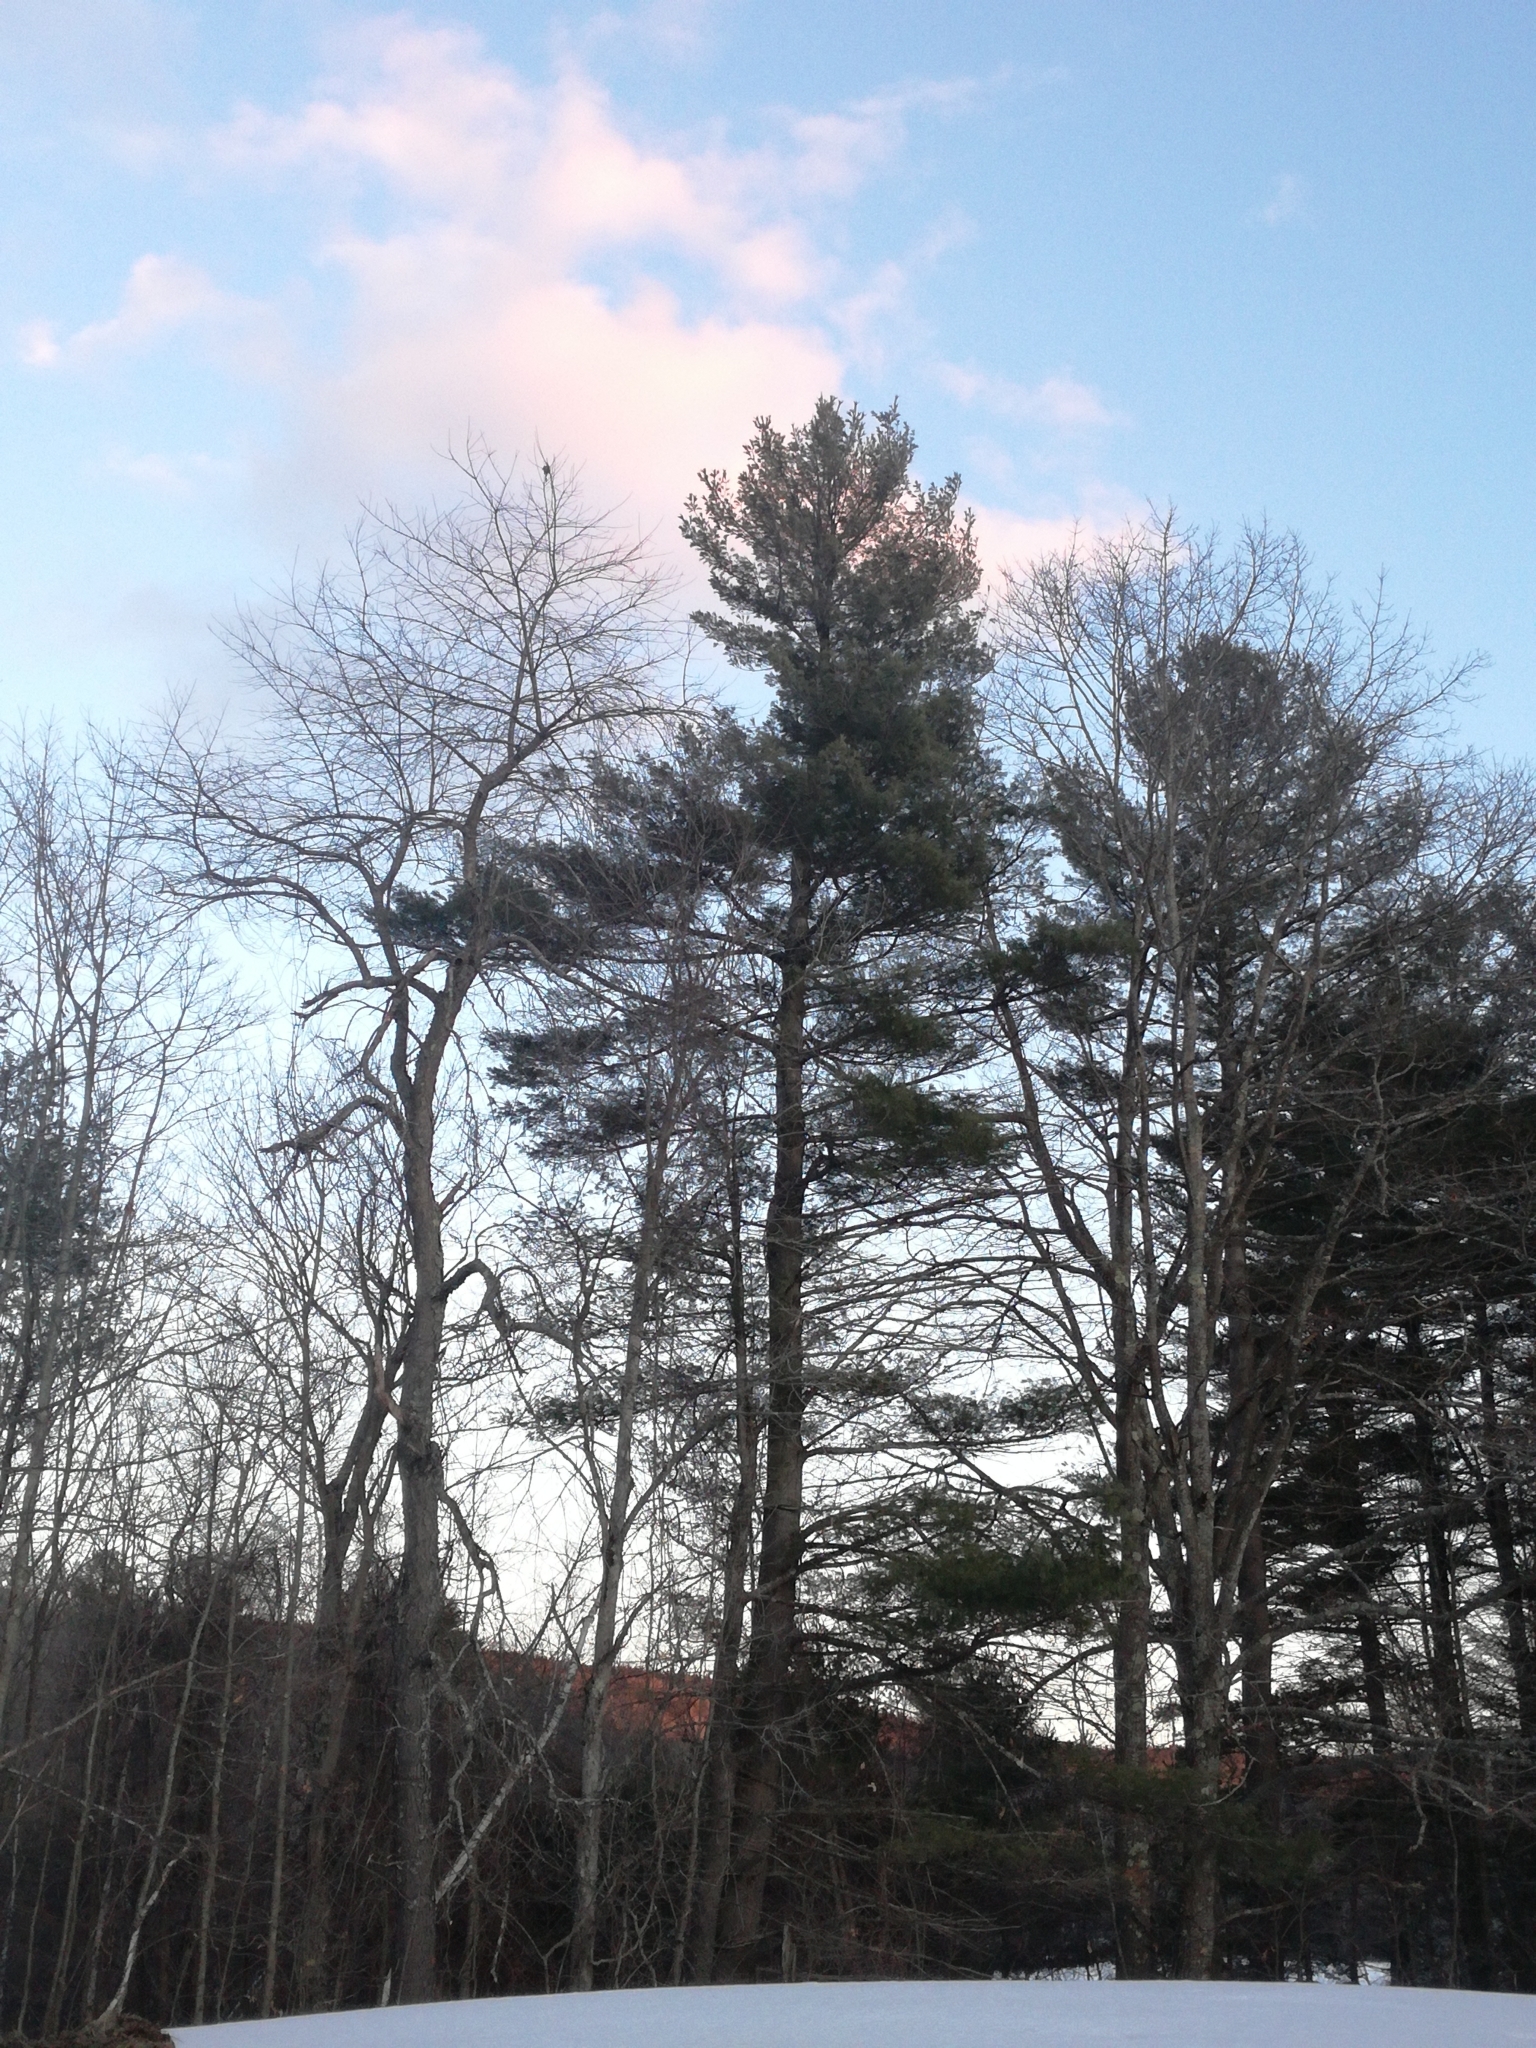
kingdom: Plantae
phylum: Tracheophyta
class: Pinopsida
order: Pinales
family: Pinaceae
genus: Pinus
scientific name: Pinus strobus
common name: Weymouth pine
